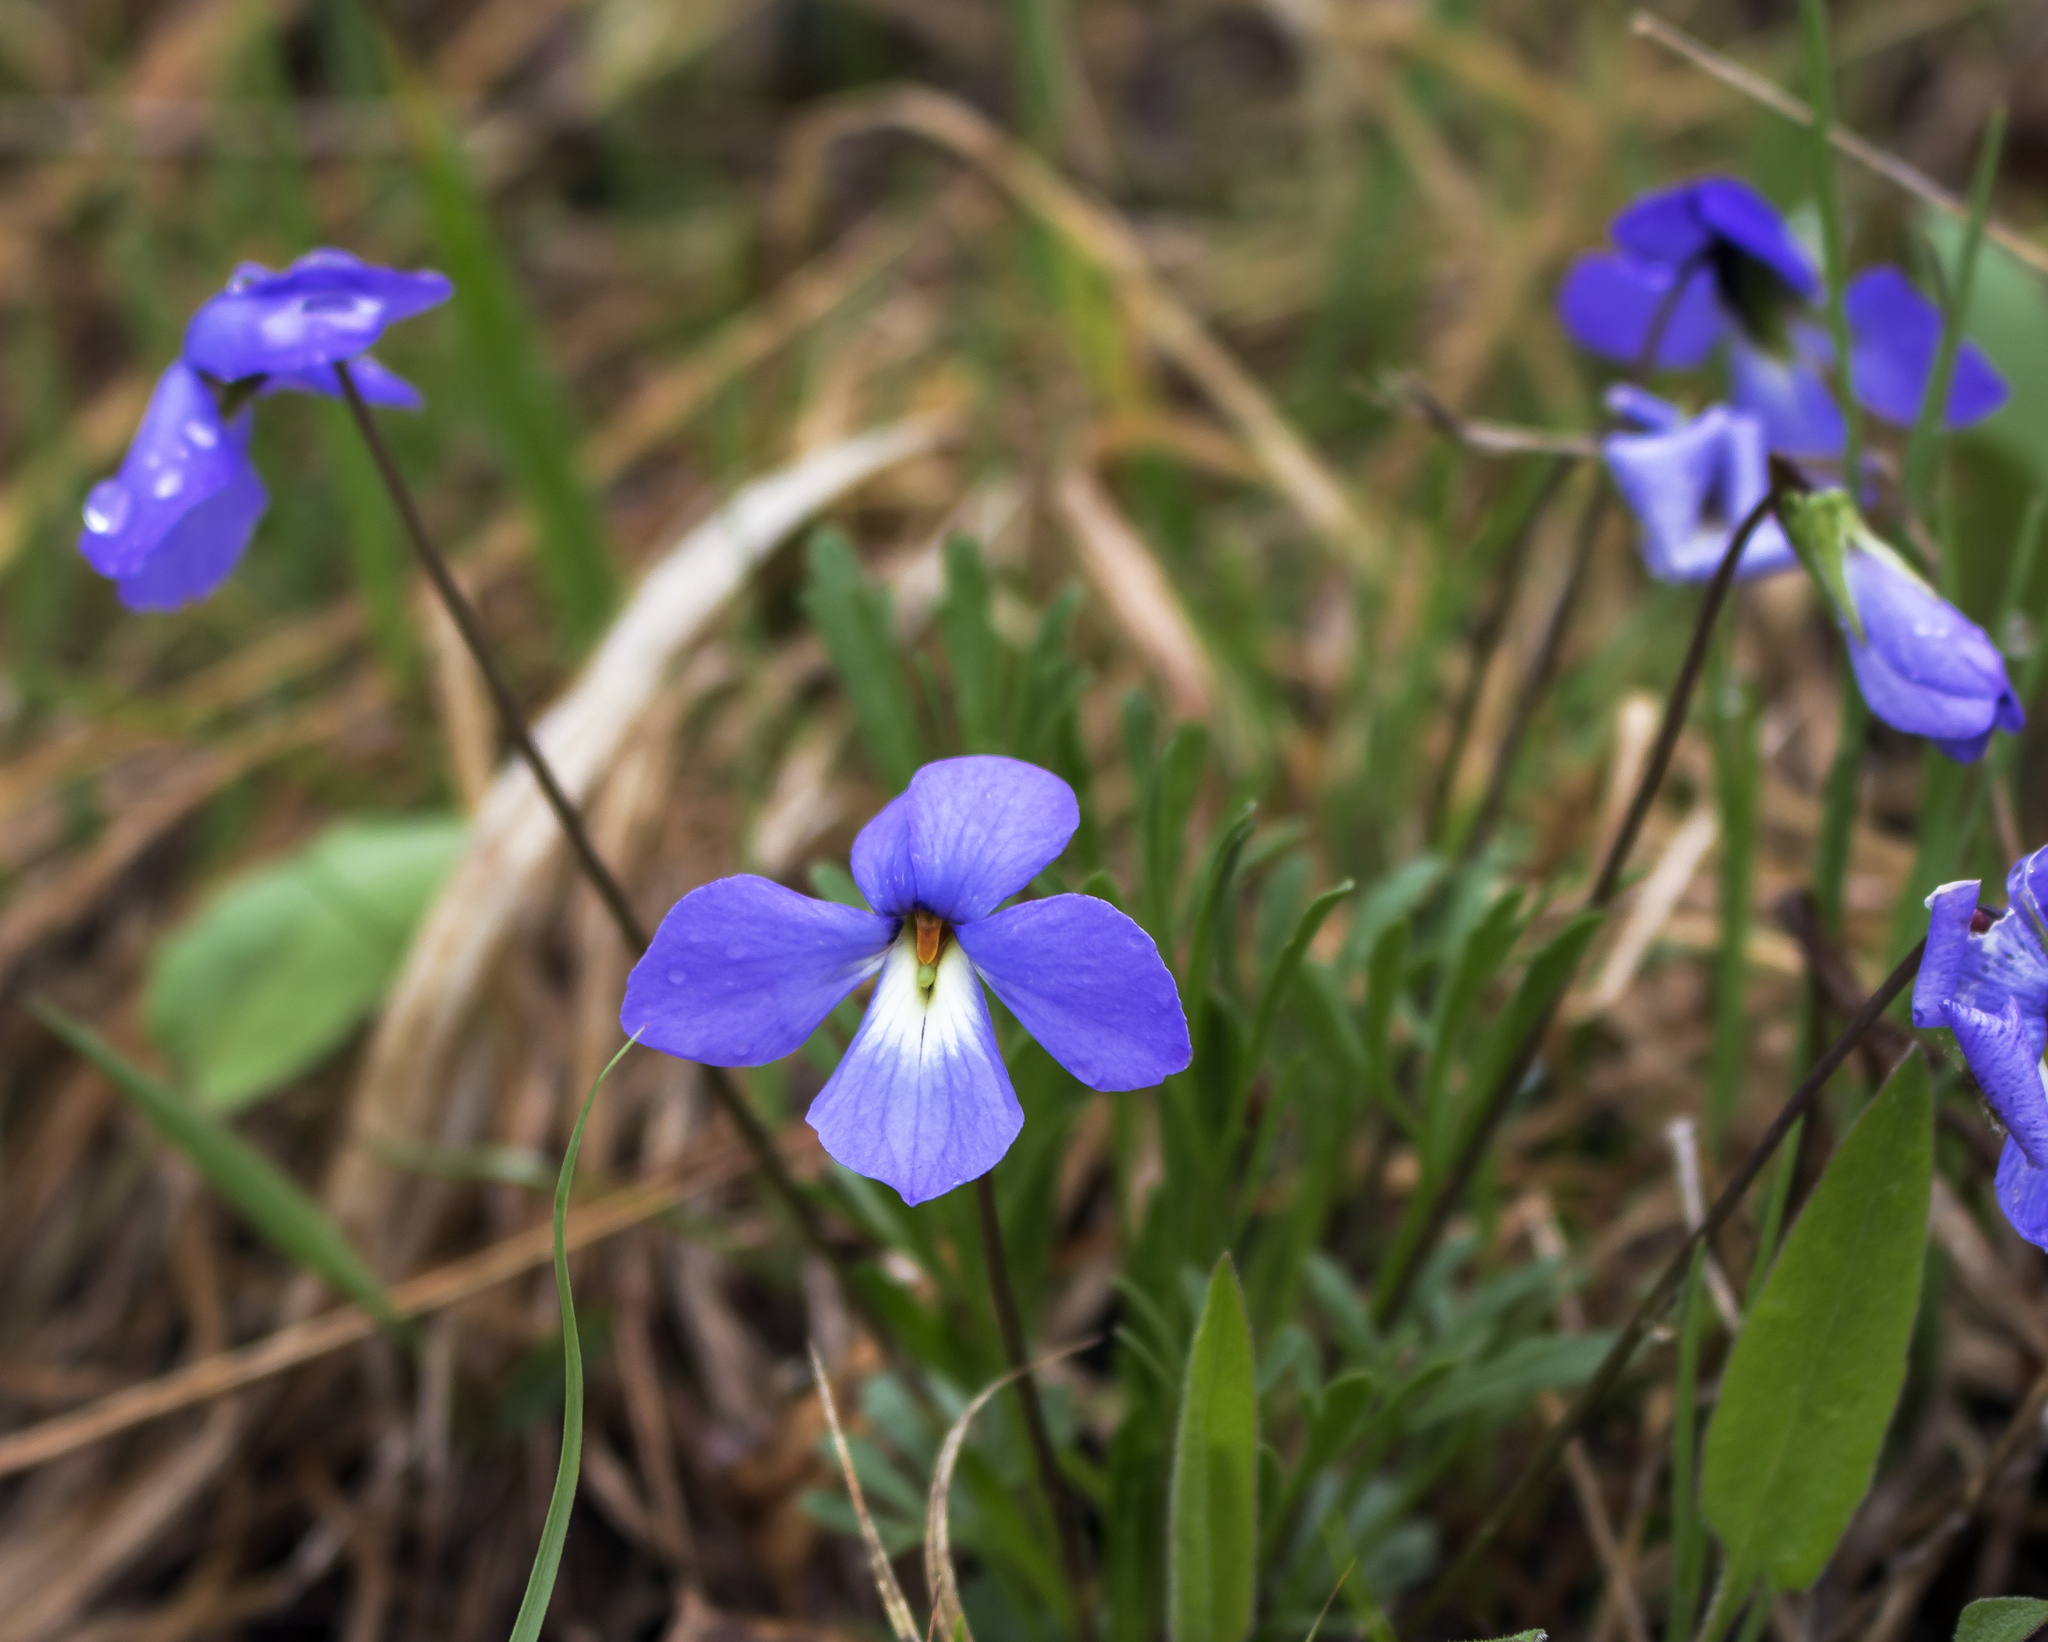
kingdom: Plantae
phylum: Tracheophyta
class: Magnoliopsida
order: Malpighiales
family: Violaceae
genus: Viola
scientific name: Viola pedata
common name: Pansy violet
